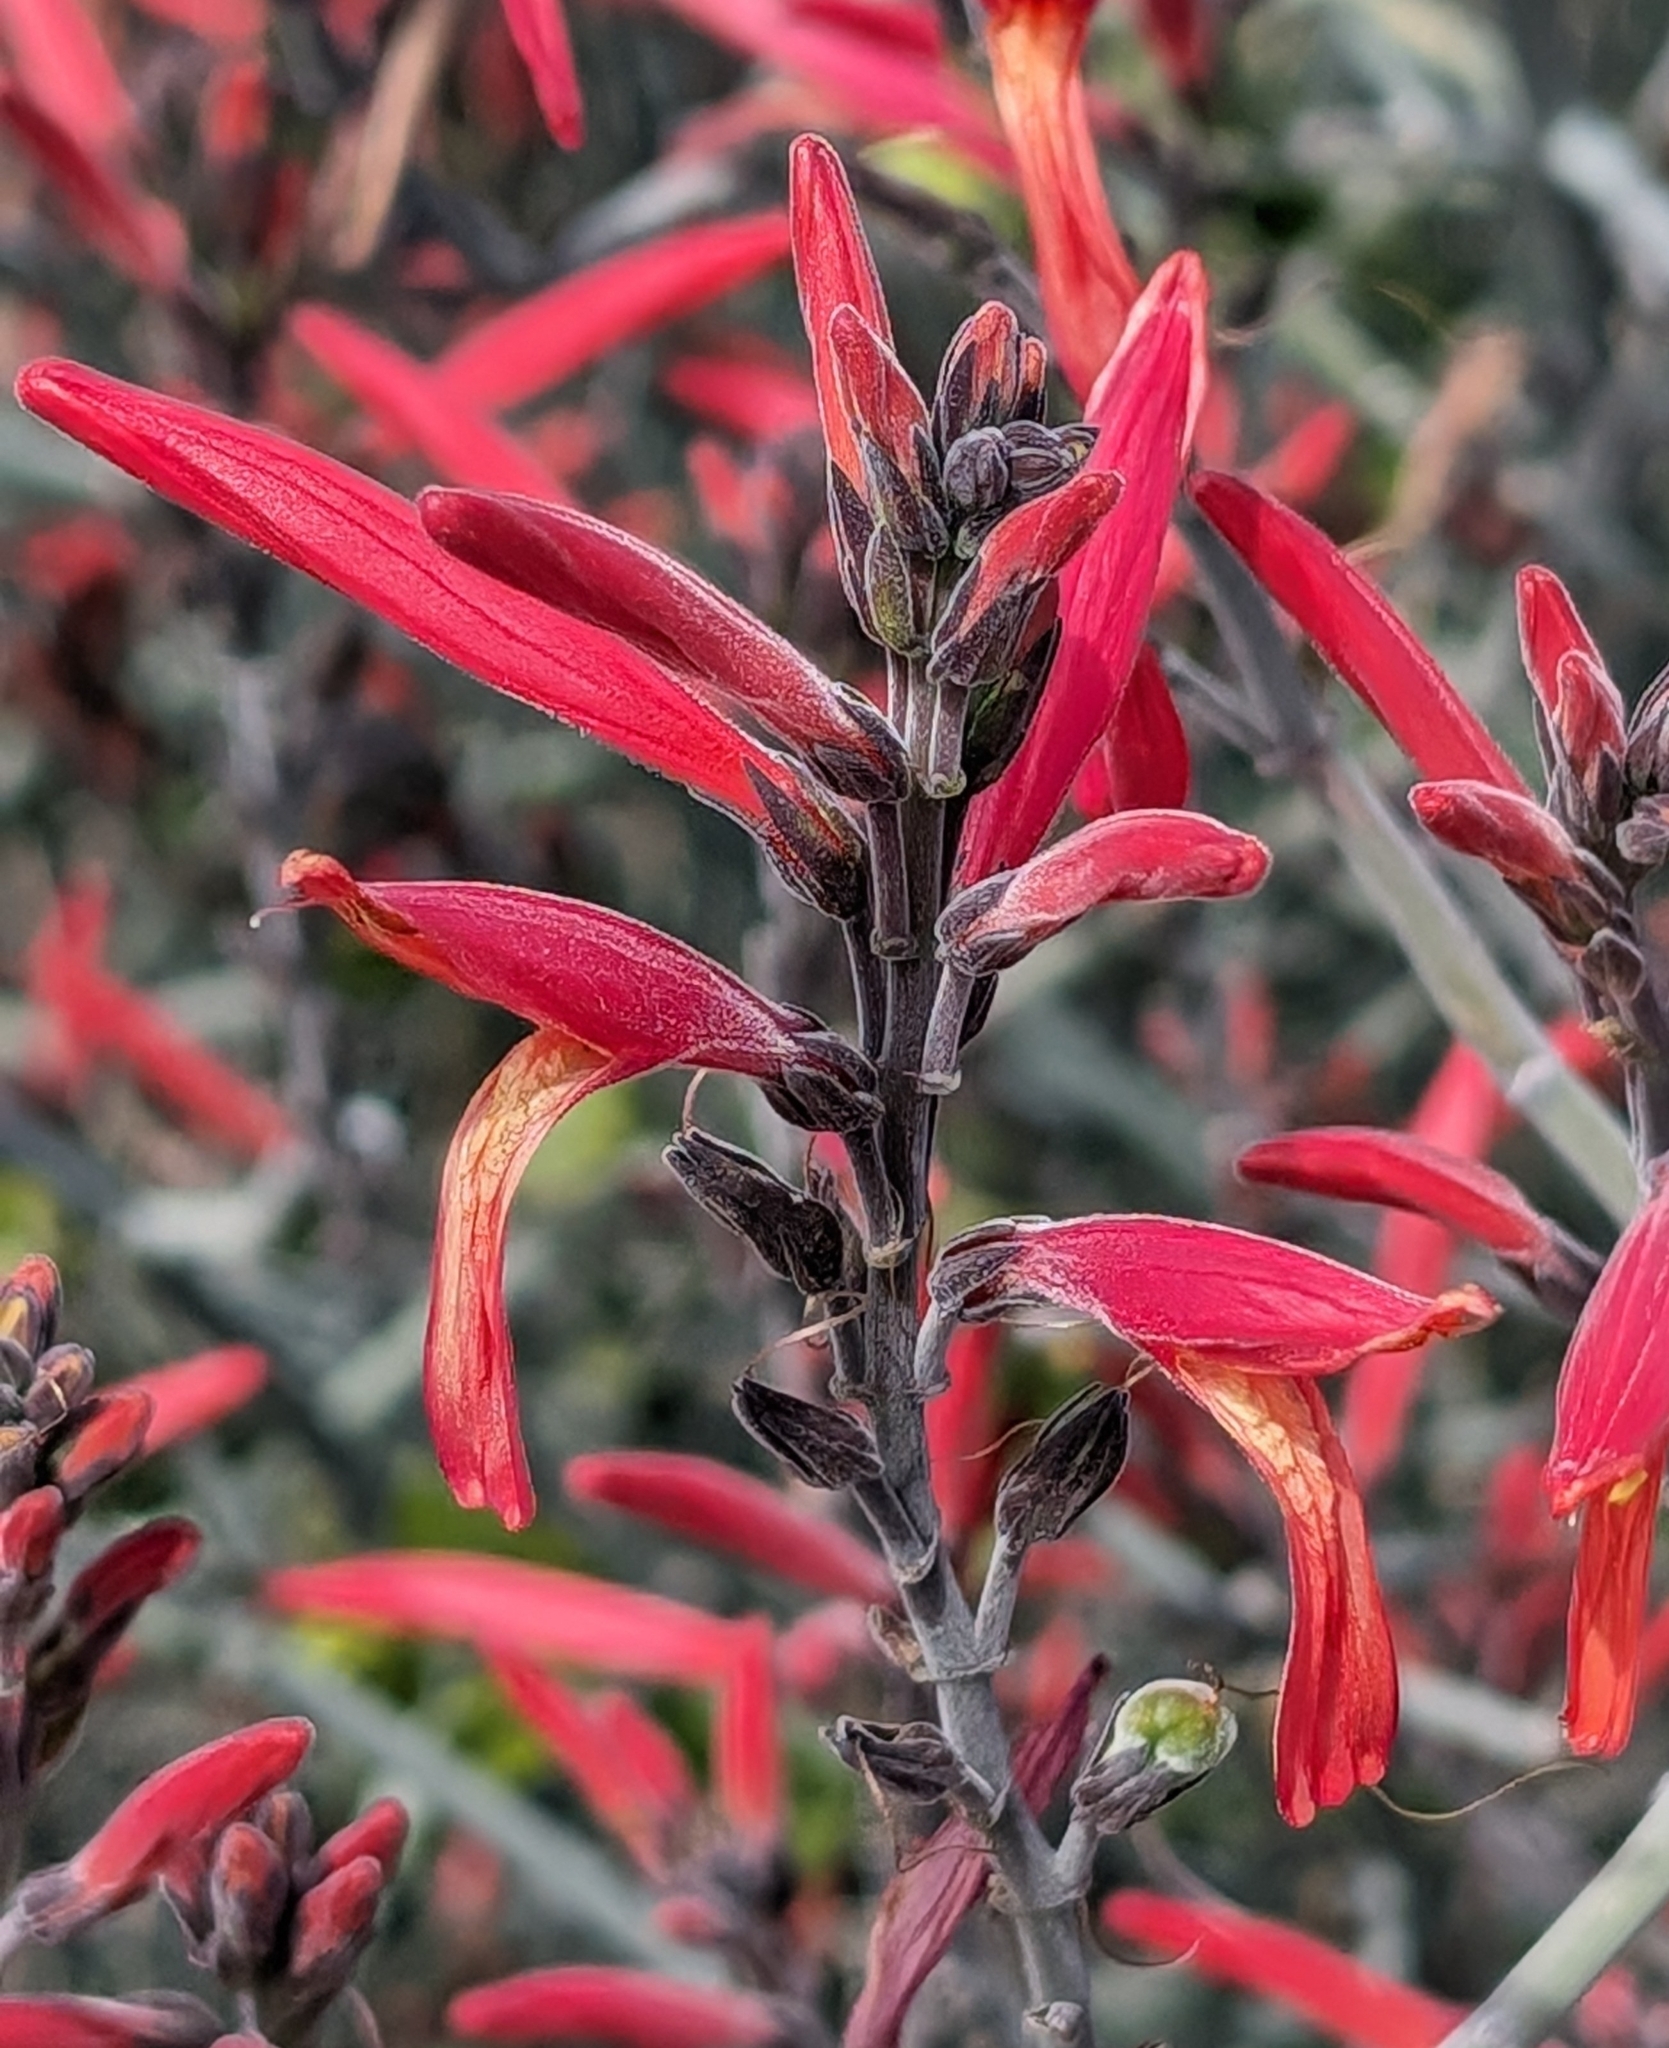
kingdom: Plantae
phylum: Tracheophyta
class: Magnoliopsida
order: Lamiales
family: Acanthaceae
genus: Justicia
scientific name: Justicia californica
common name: Chuparosa-honeysuckle
